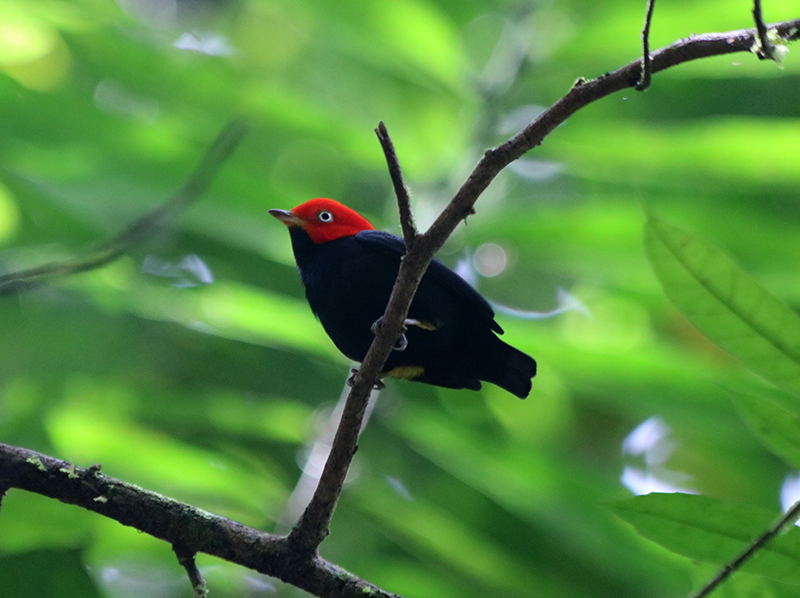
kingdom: Animalia
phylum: Chordata
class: Aves
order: Passeriformes
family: Pipridae
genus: Pipra
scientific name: Pipra mentalis
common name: Red-capped manakin
